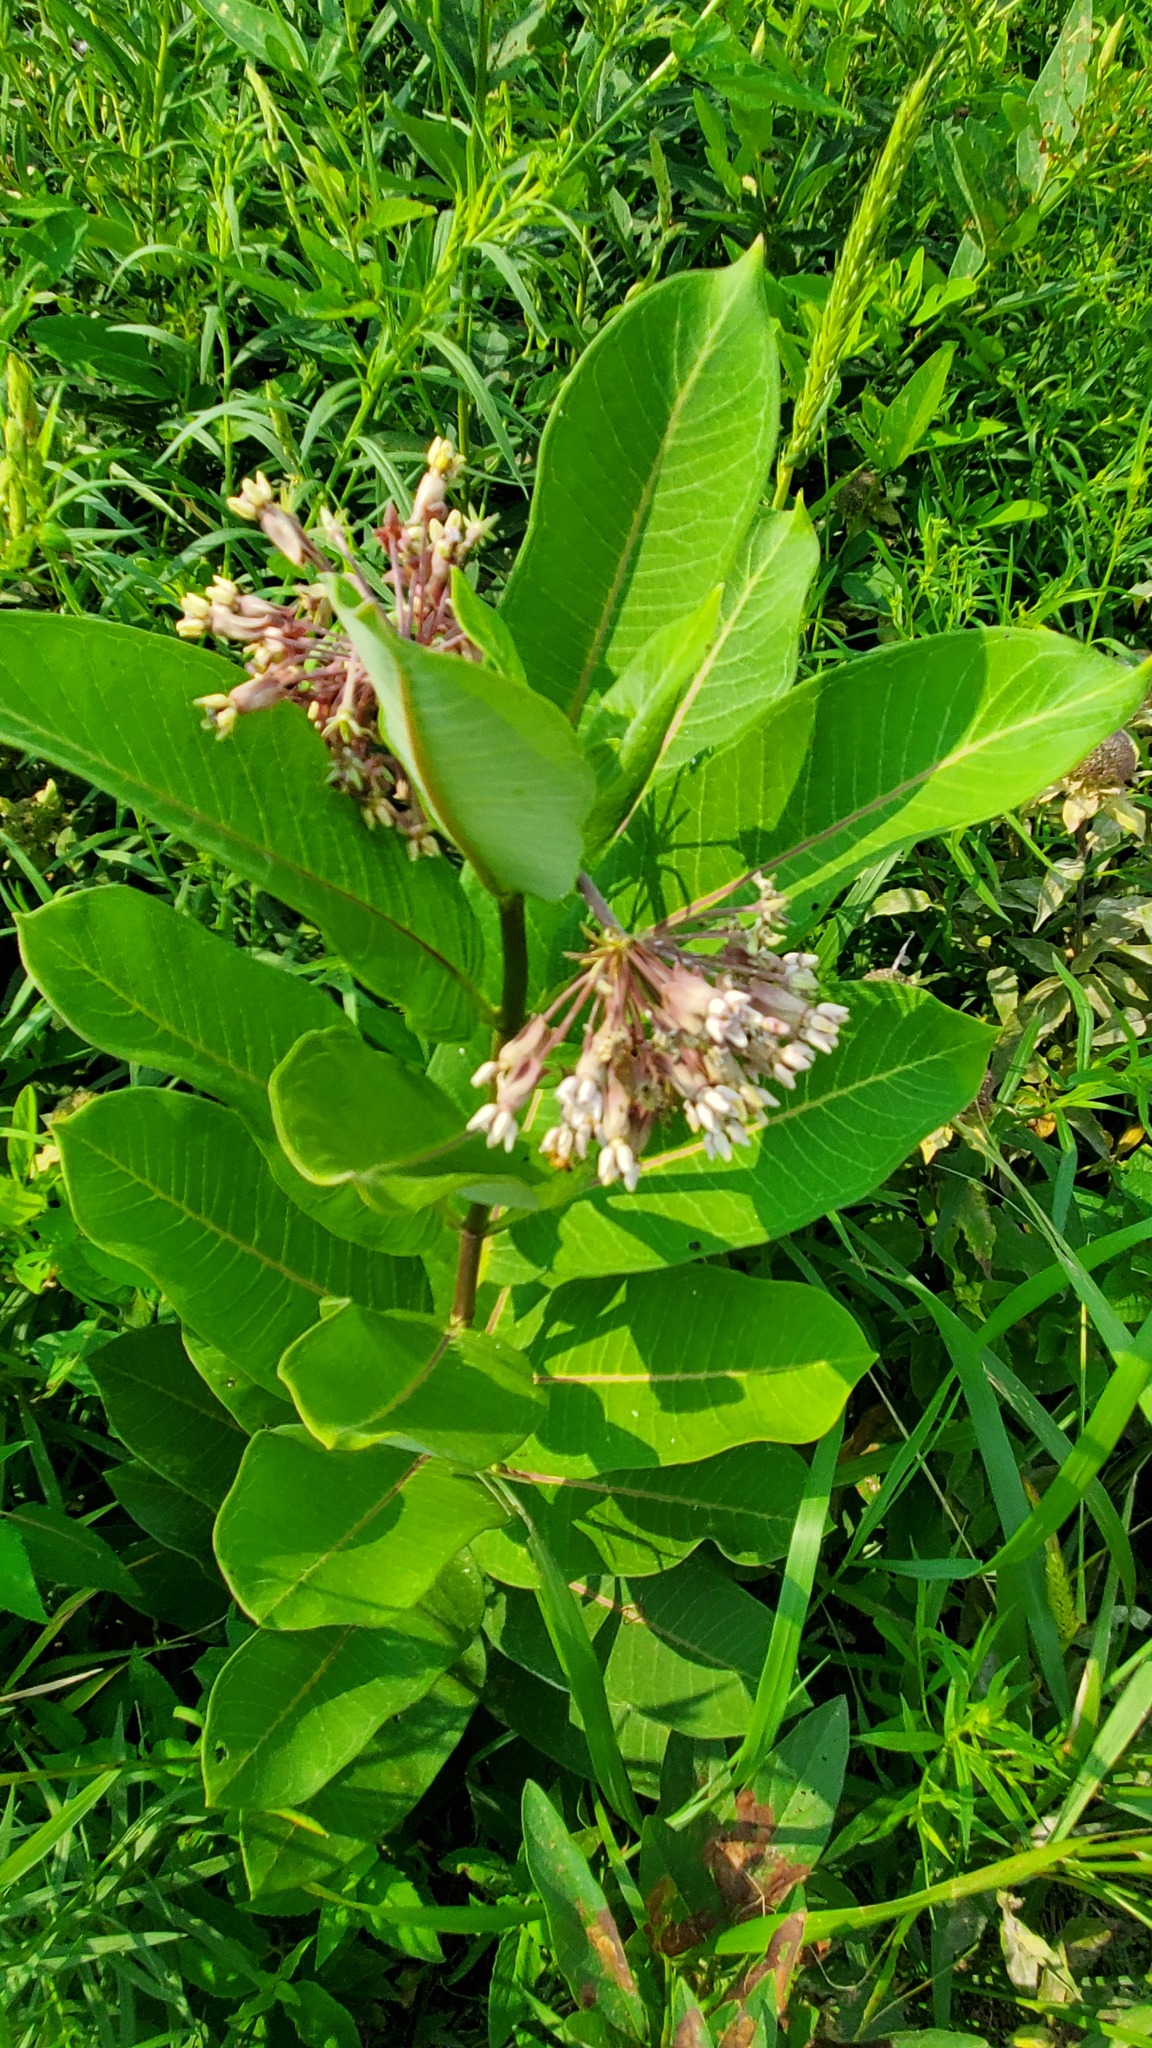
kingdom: Plantae
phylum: Tracheophyta
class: Magnoliopsida
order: Gentianales
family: Apocynaceae
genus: Asclepias
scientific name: Asclepias syriaca
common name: Common milkweed
